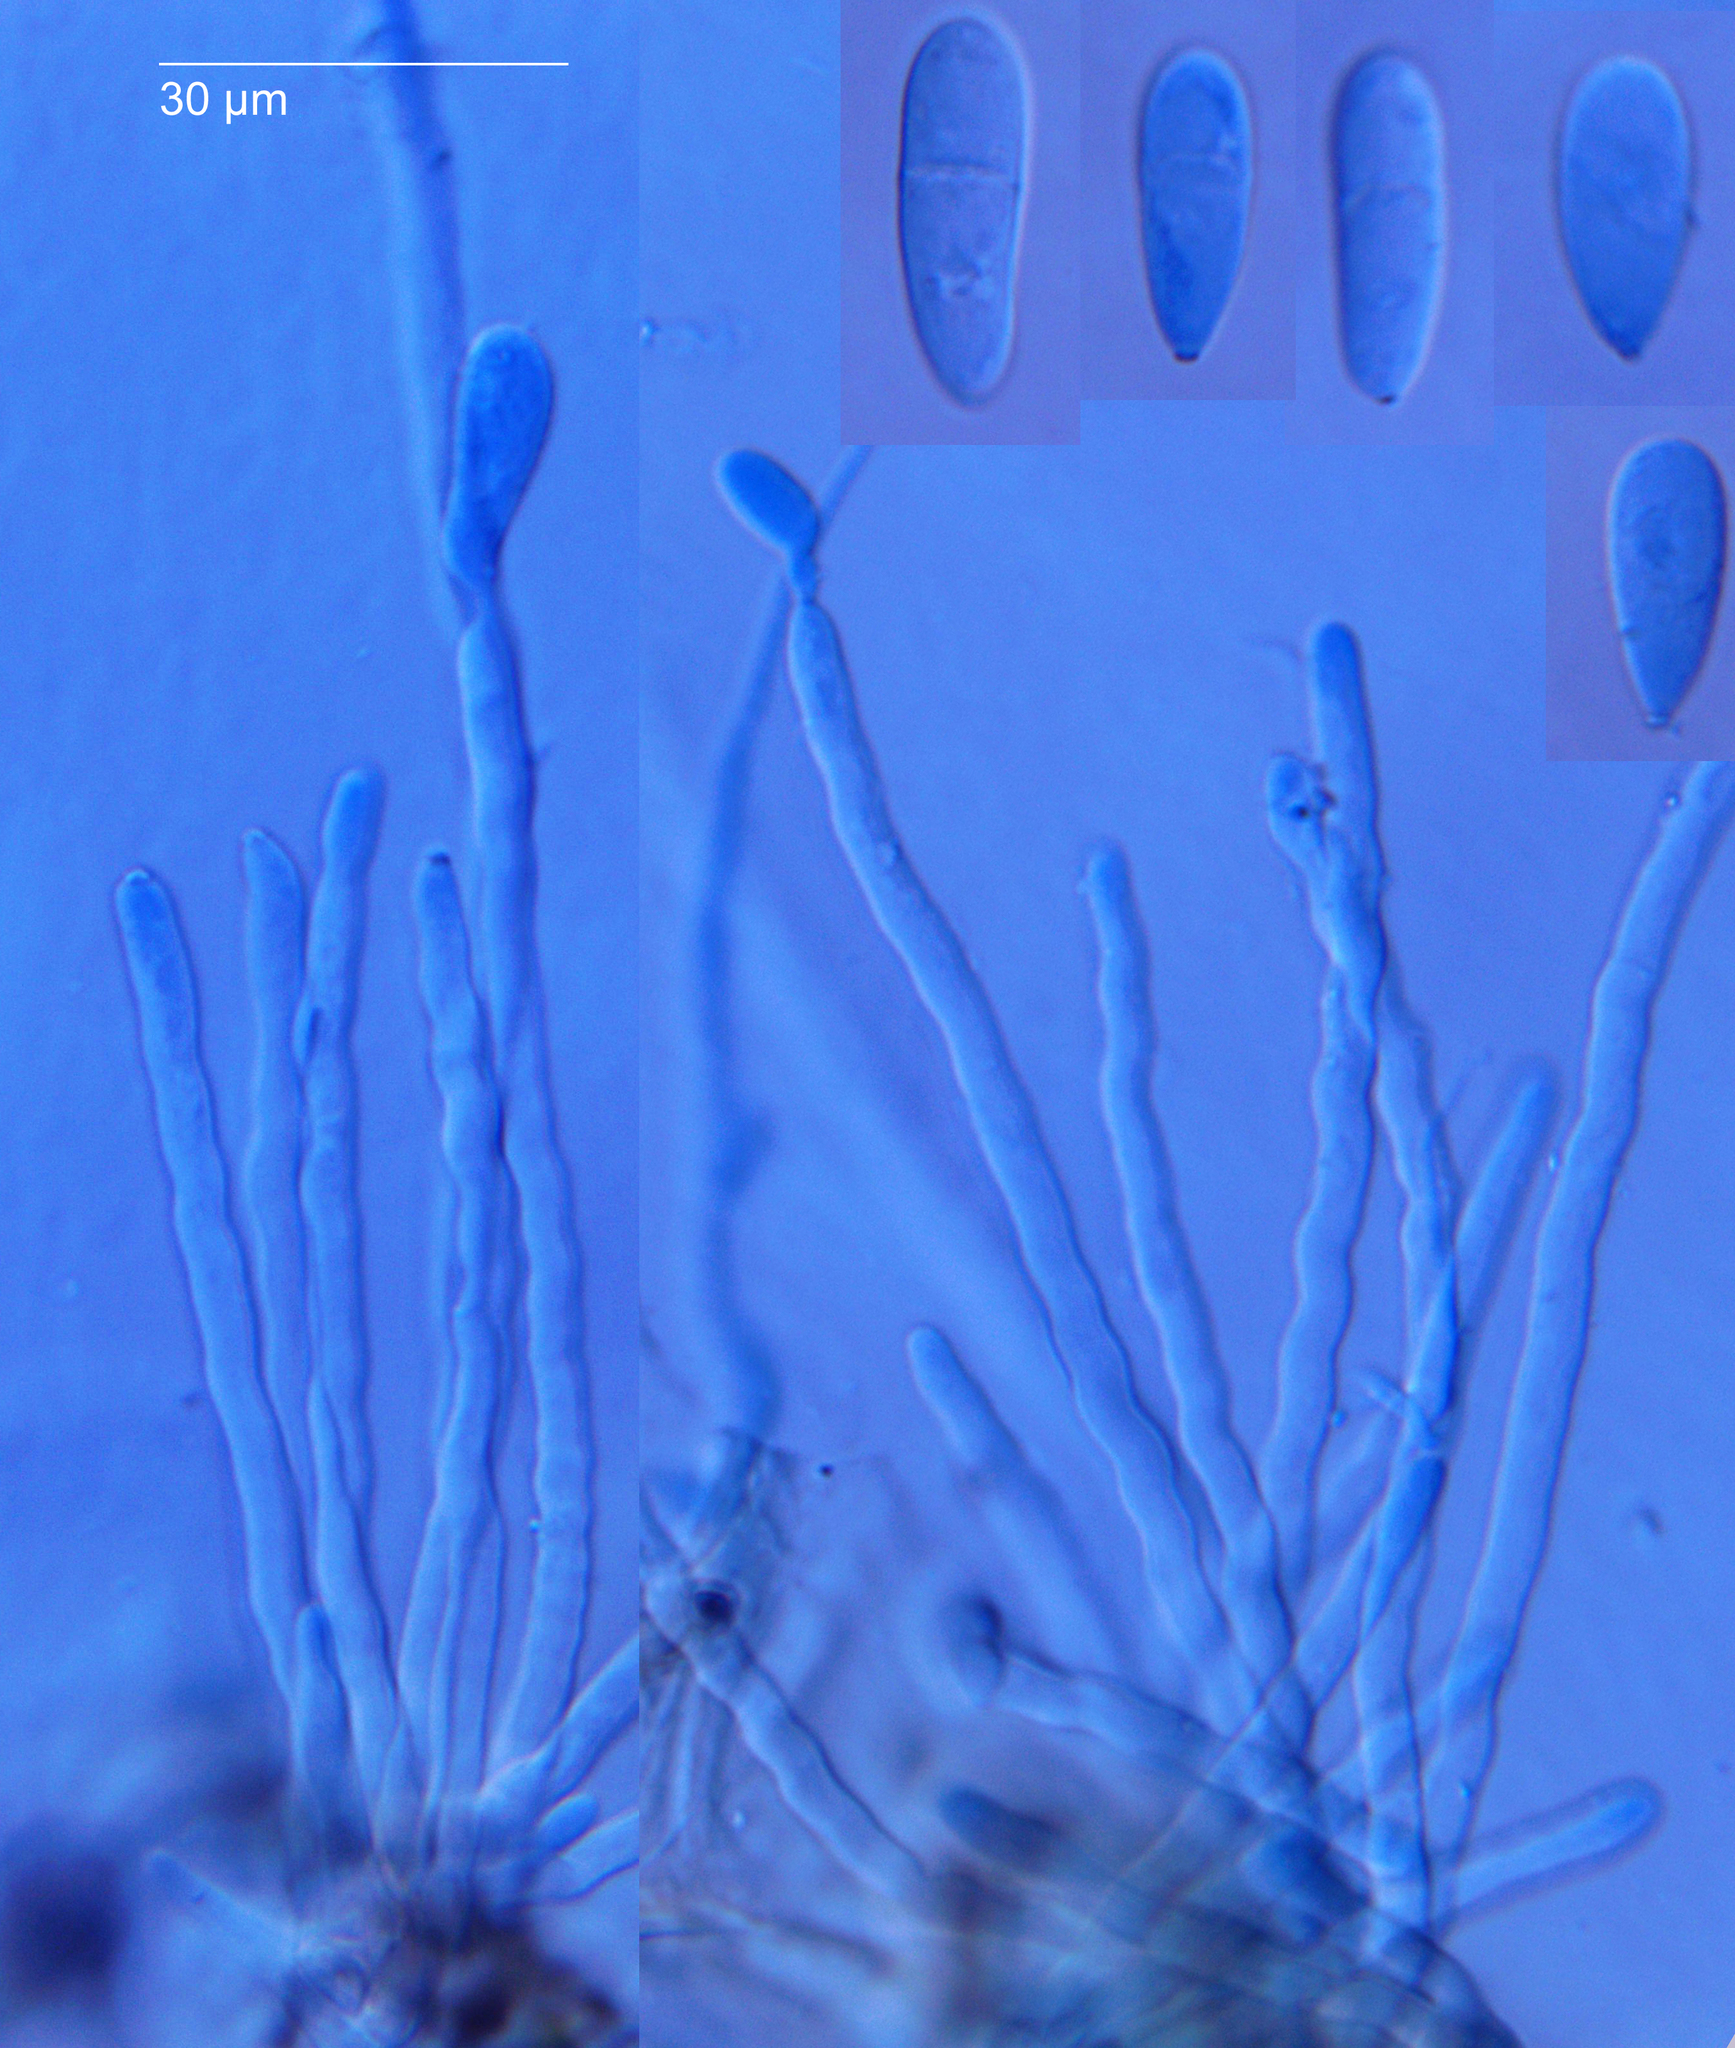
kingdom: Fungi
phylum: Ascomycota
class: Dothideomycetes
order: Mycosphaerellales
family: Mycosphaerellaceae
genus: Ramularia
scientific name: Ramularia simplex
